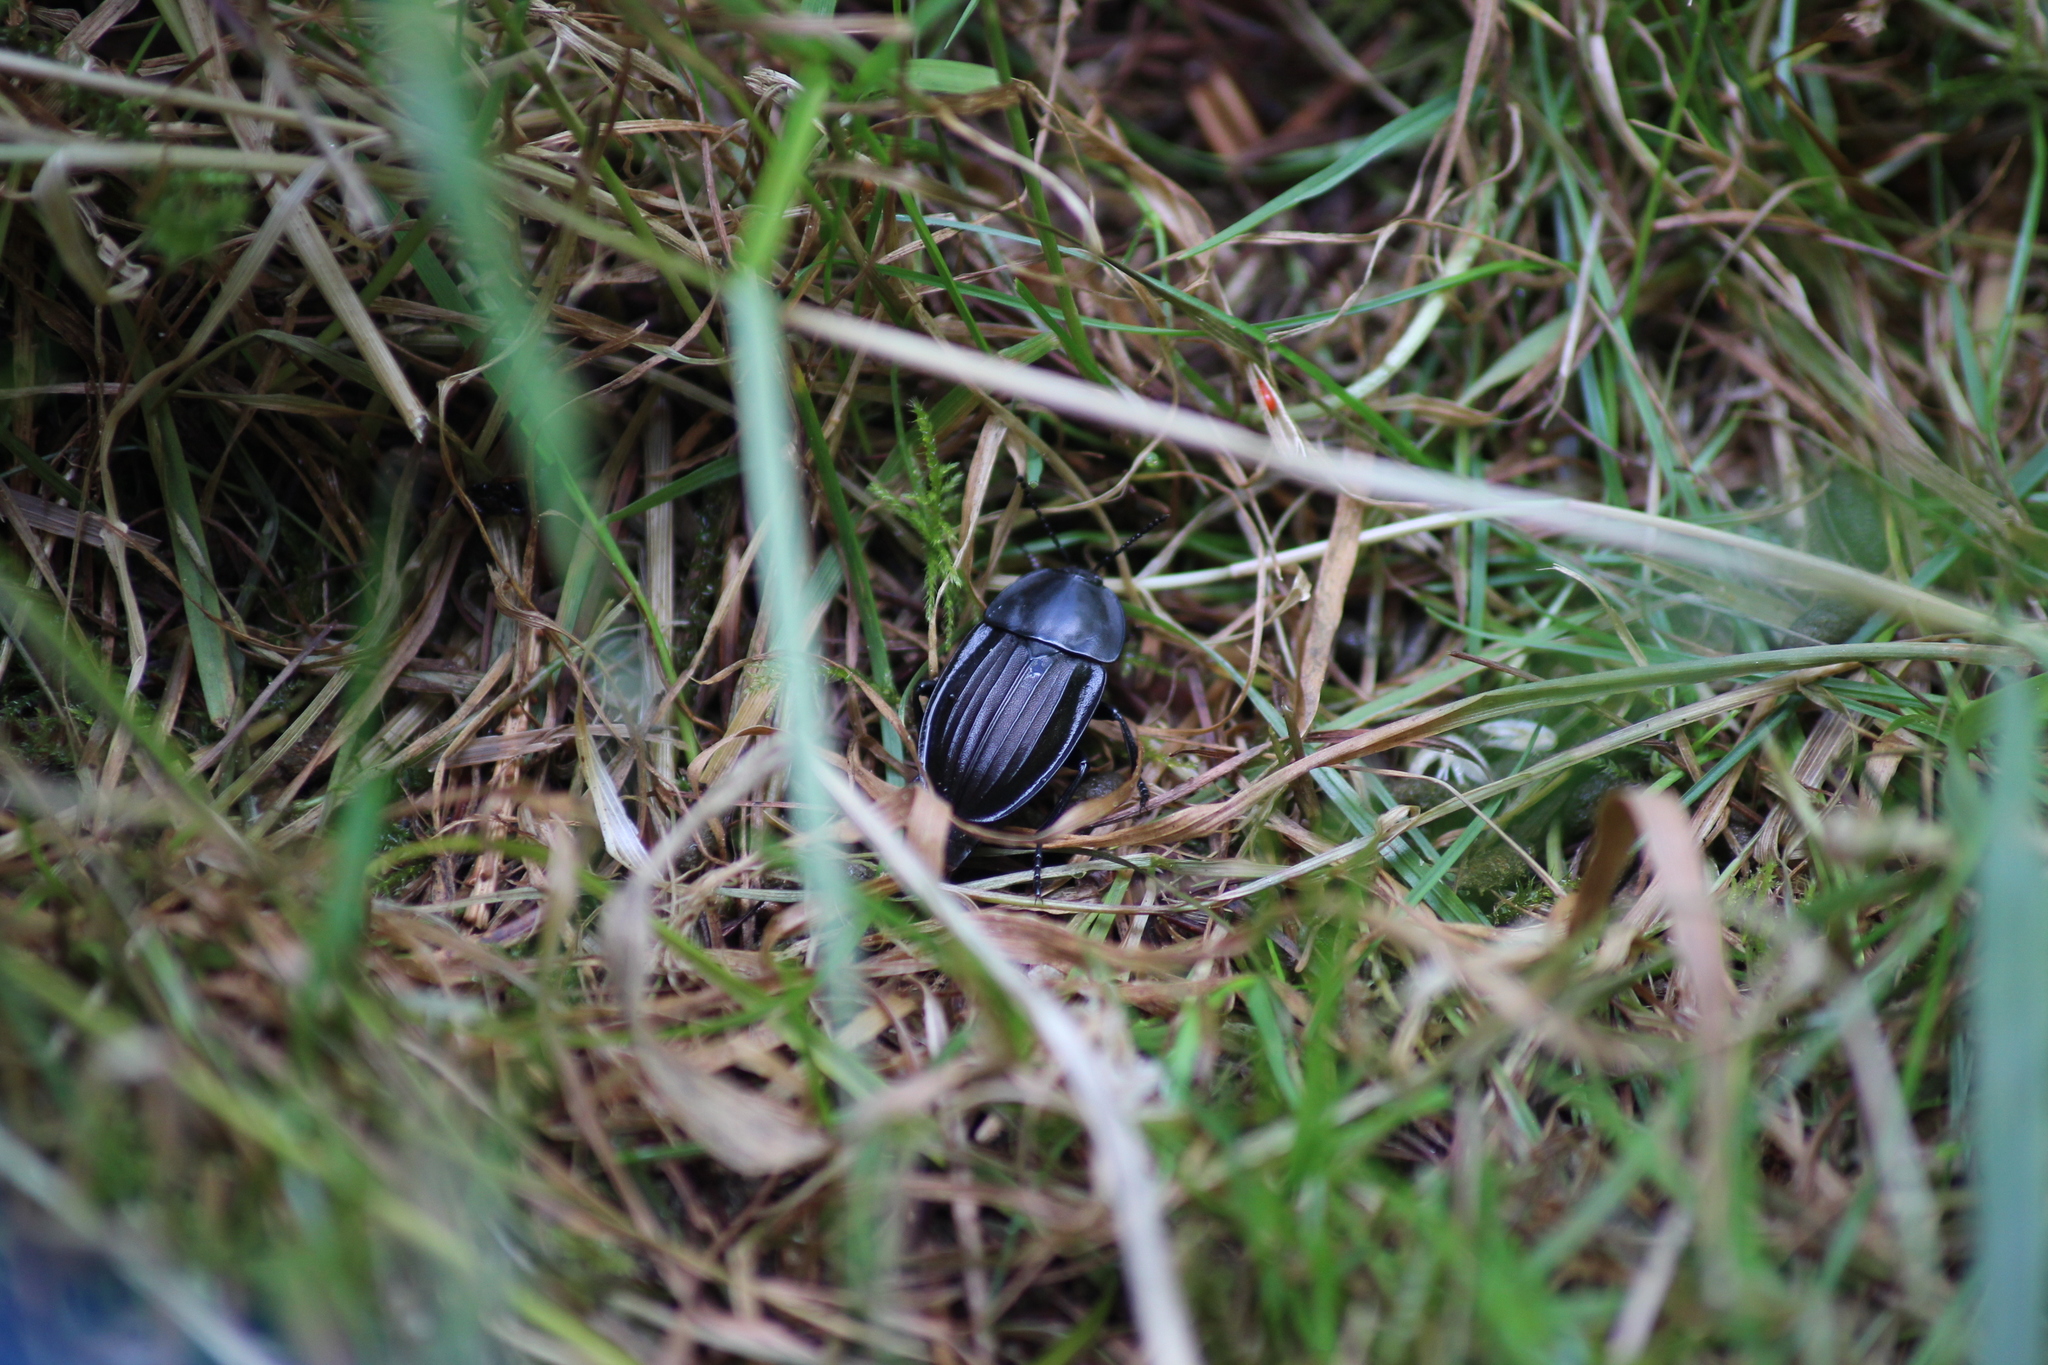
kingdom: Animalia
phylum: Arthropoda
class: Insecta
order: Coleoptera
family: Staphylinidae
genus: Silpha
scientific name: Silpha carinata
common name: Silphid beetle
